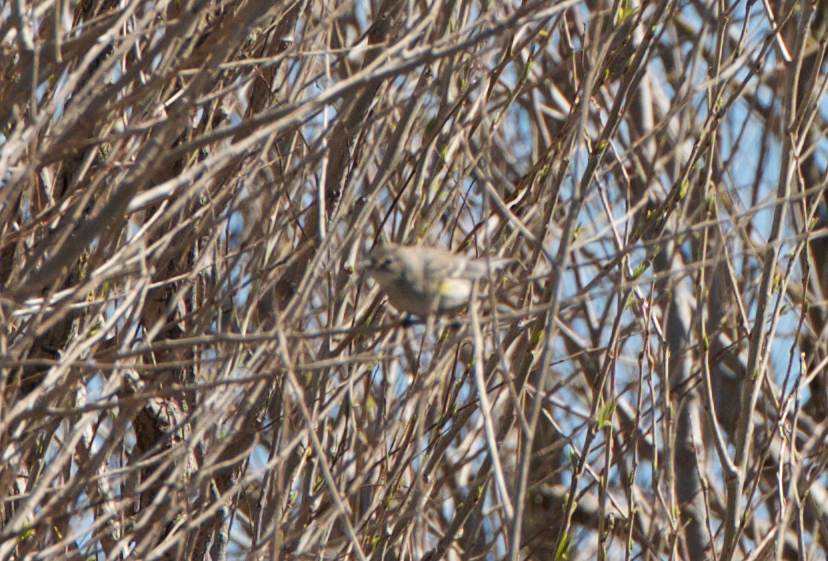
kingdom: Animalia
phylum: Chordata
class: Aves
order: Passeriformes
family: Parulidae
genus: Setophaga
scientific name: Setophaga coronata
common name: Myrtle warbler
